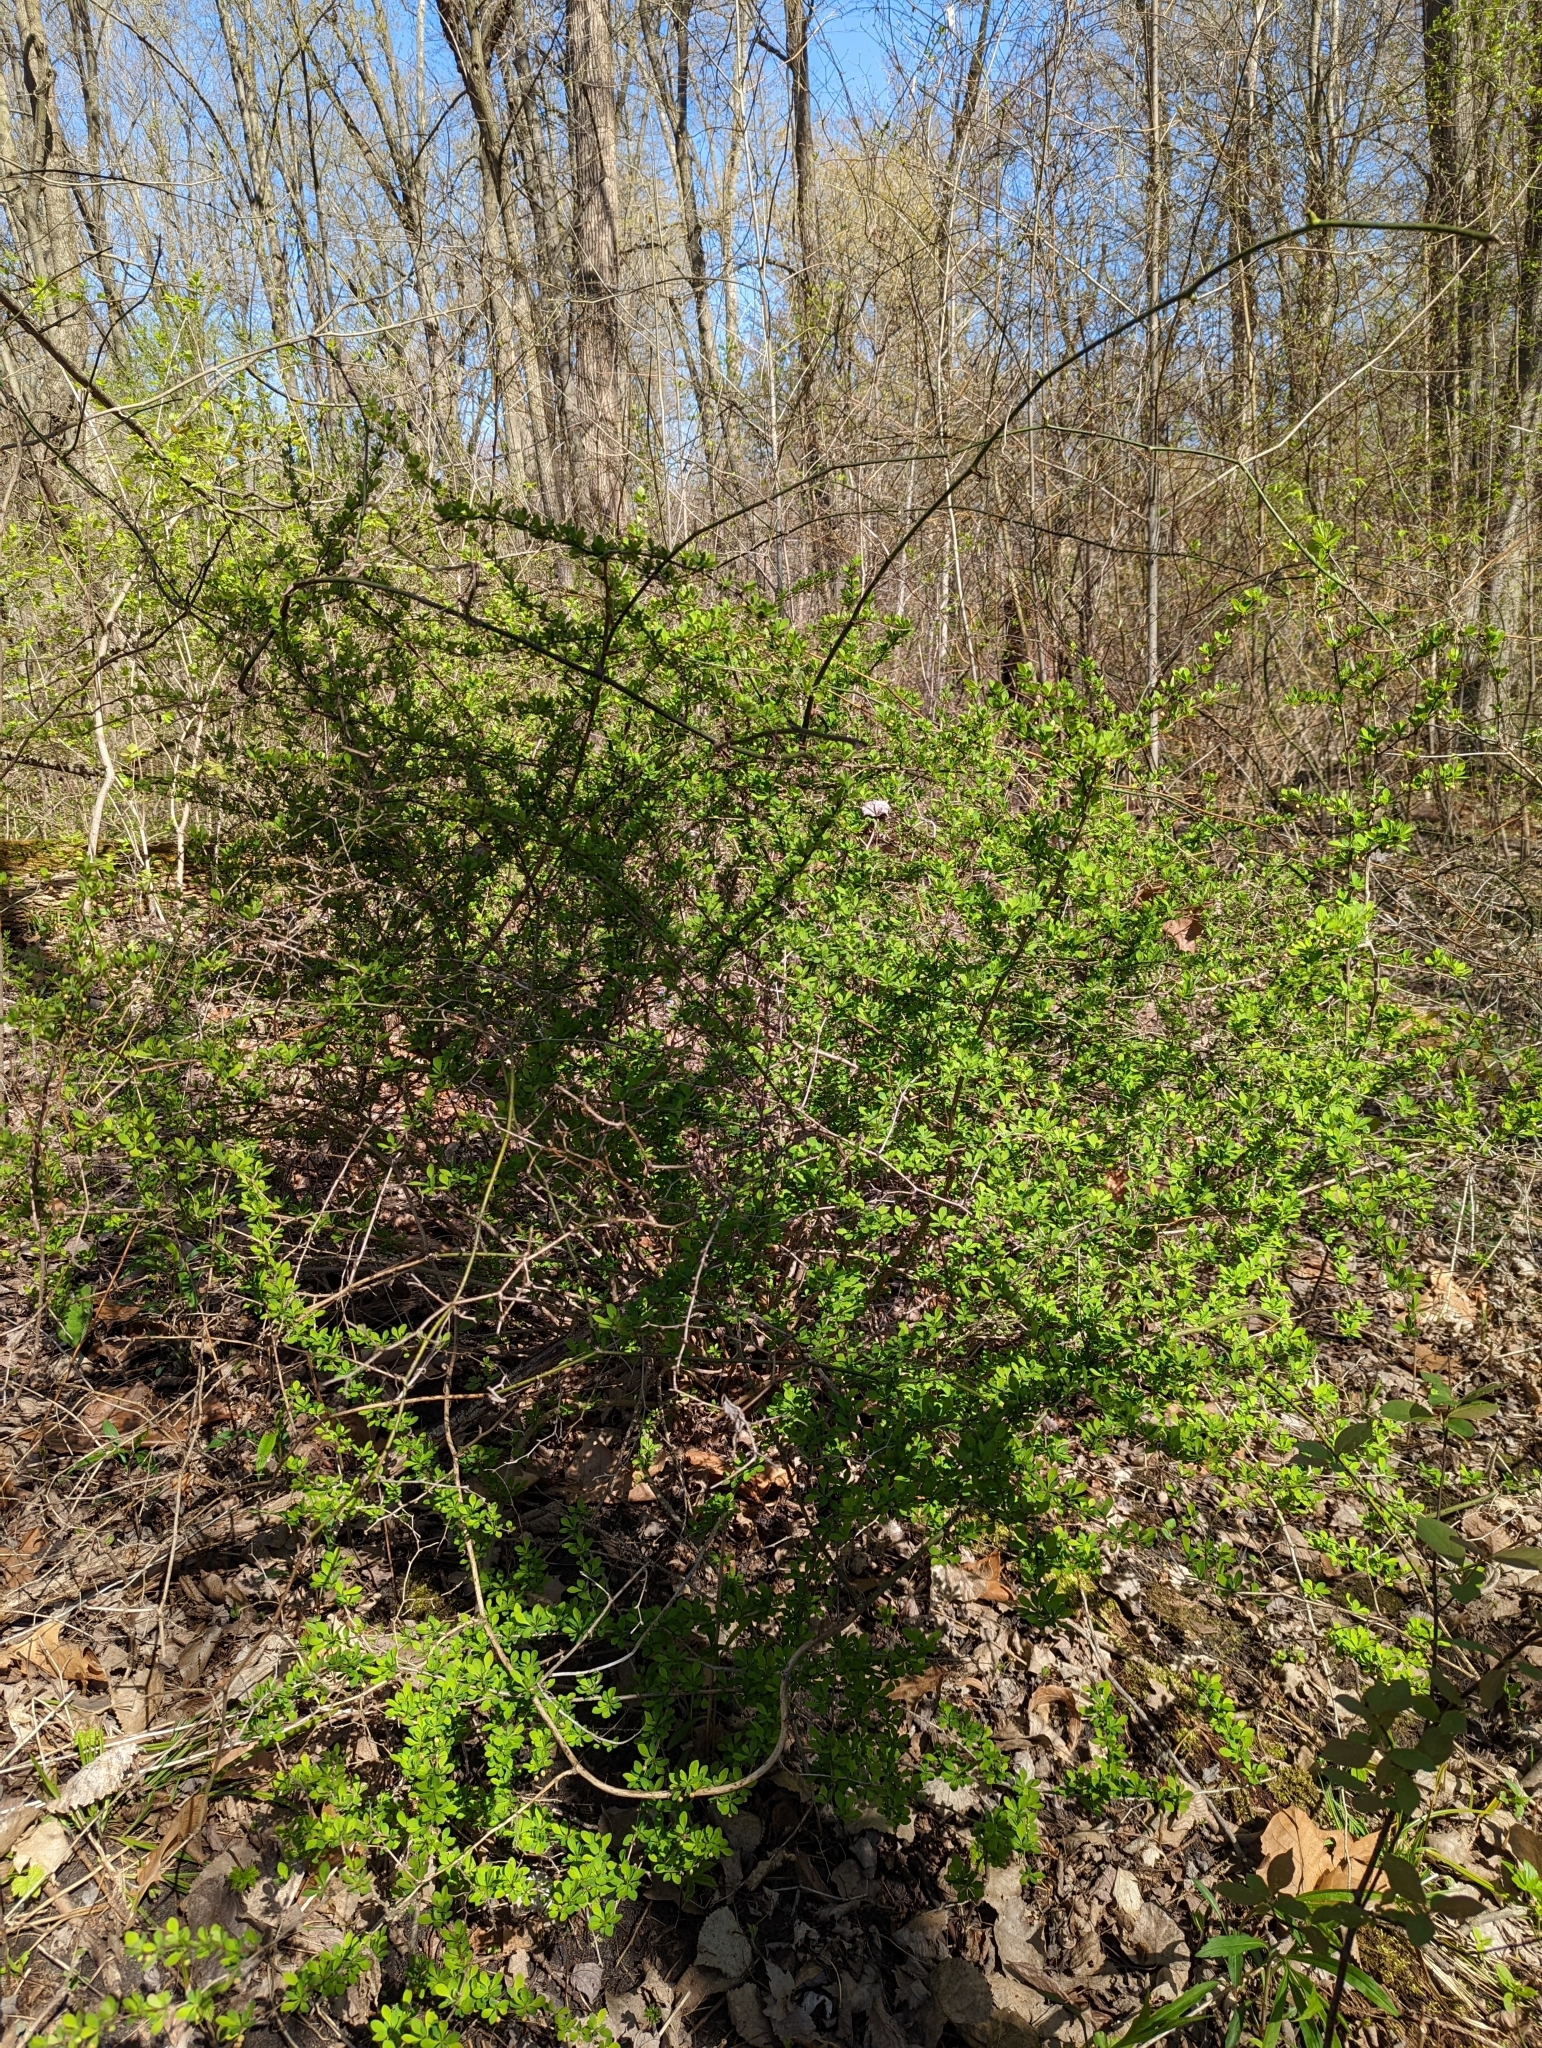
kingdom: Plantae
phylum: Tracheophyta
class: Magnoliopsida
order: Ranunculales
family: Berberidaceae
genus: Berberis
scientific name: Berberis thunbergii
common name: Japanese barberry
